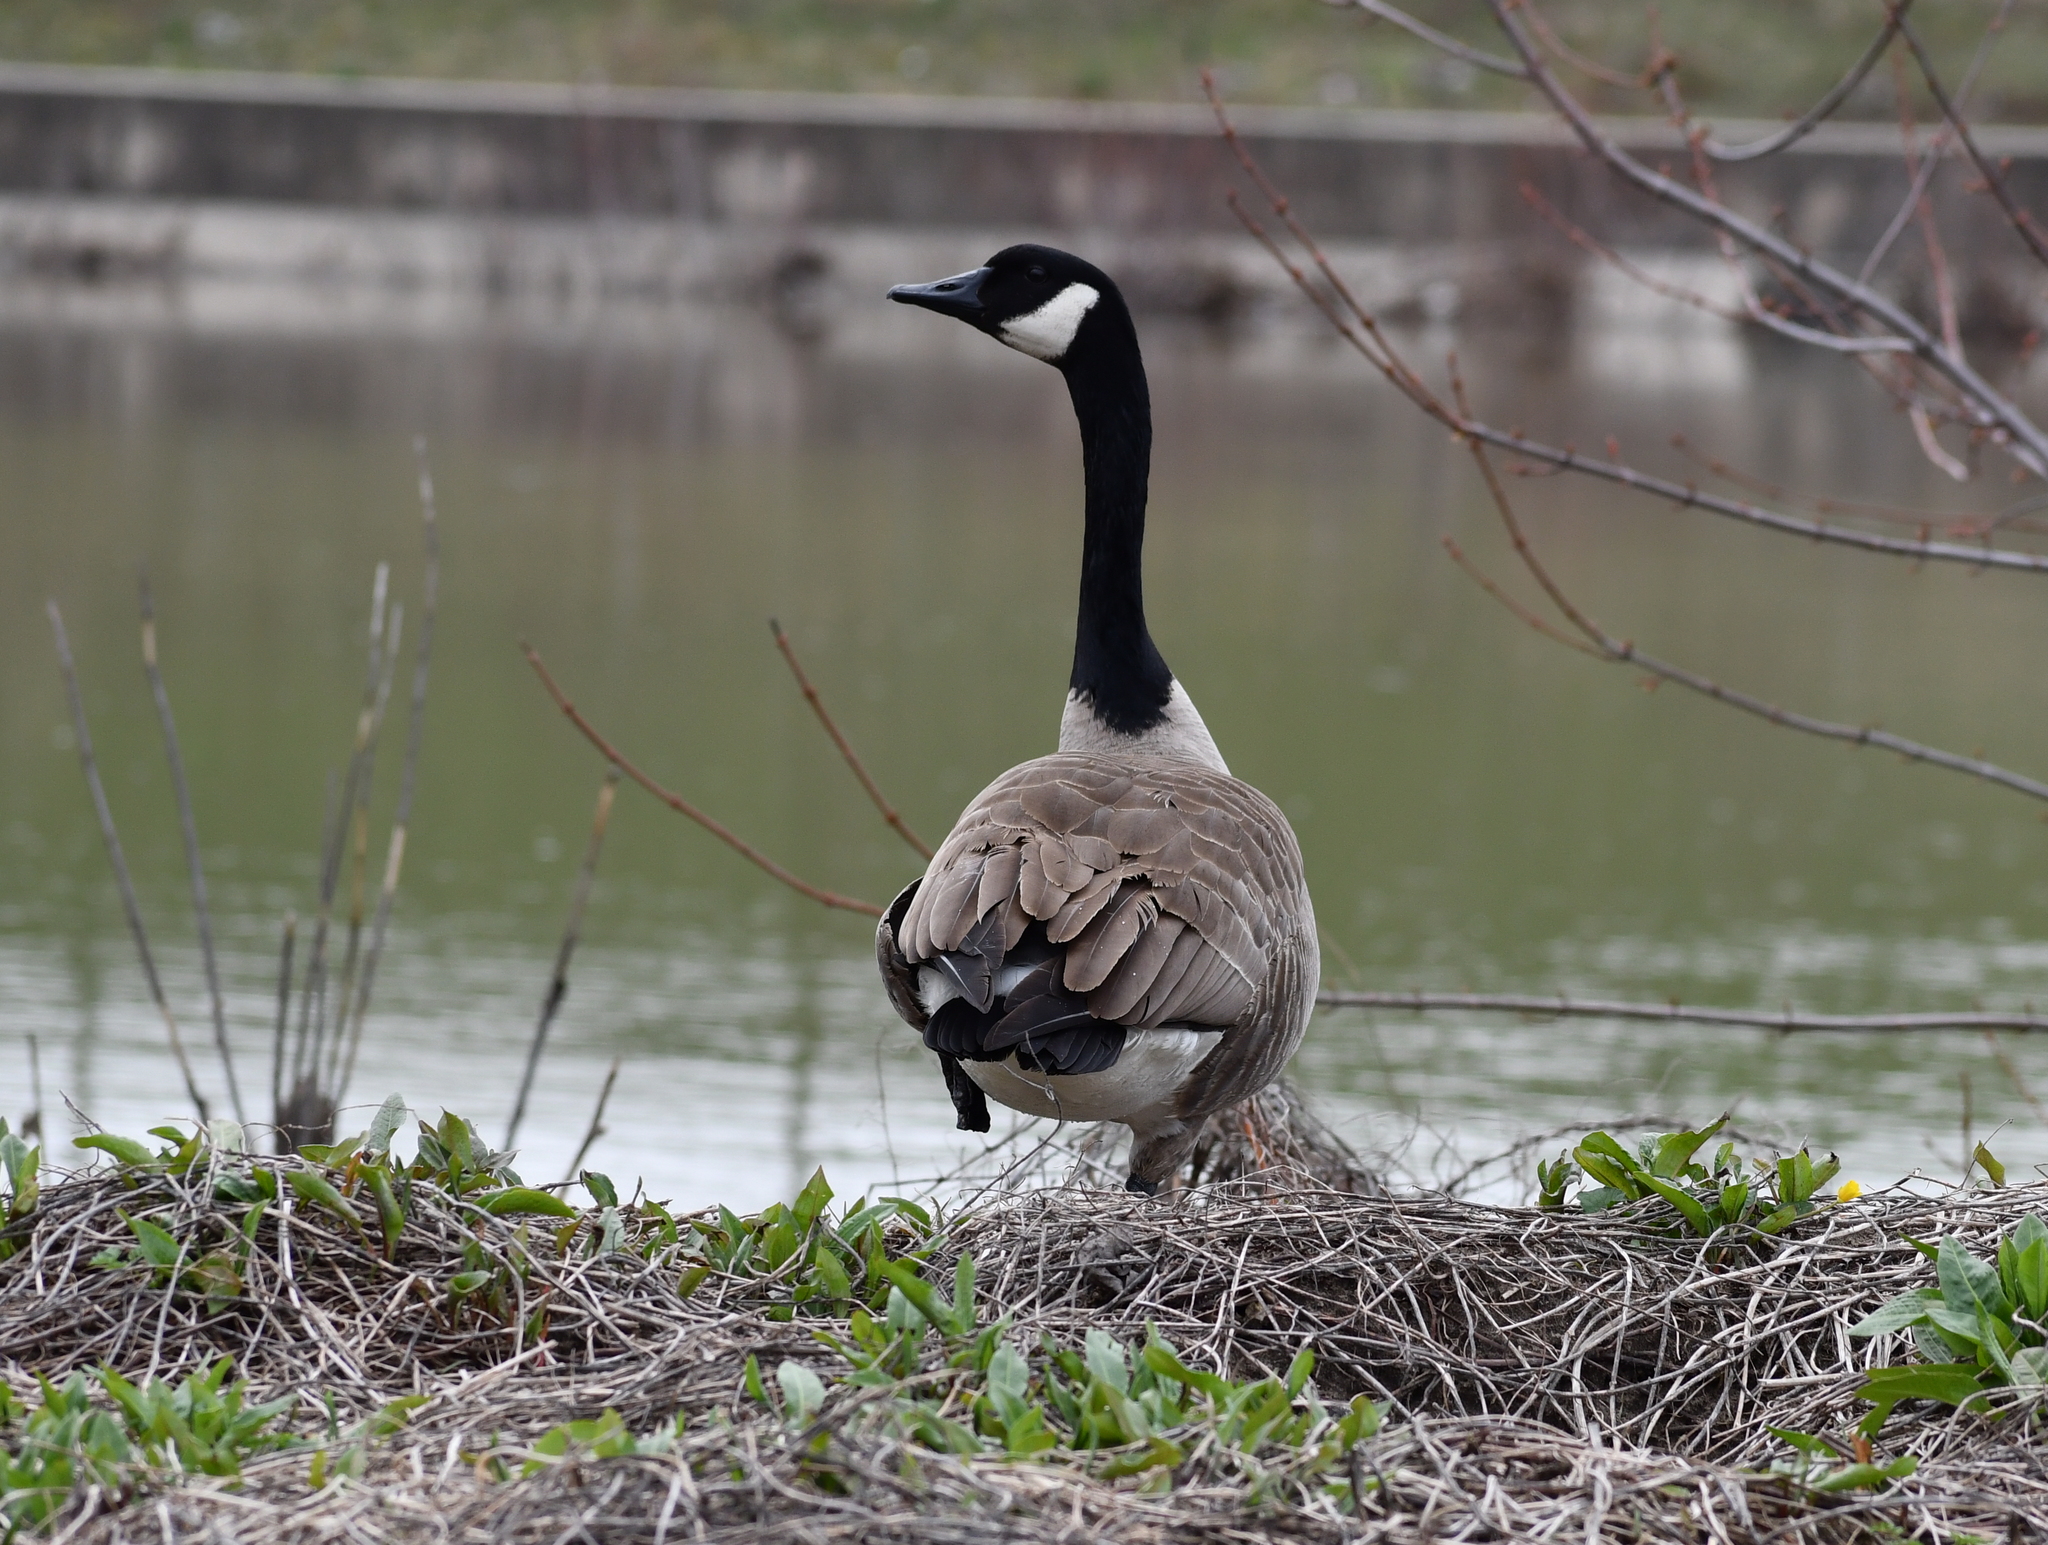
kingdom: Animalia
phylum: Chordata
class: Aves
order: Anseriformes
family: Anatidae
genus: Branta
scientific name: Branta canadensis
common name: Canada goose
